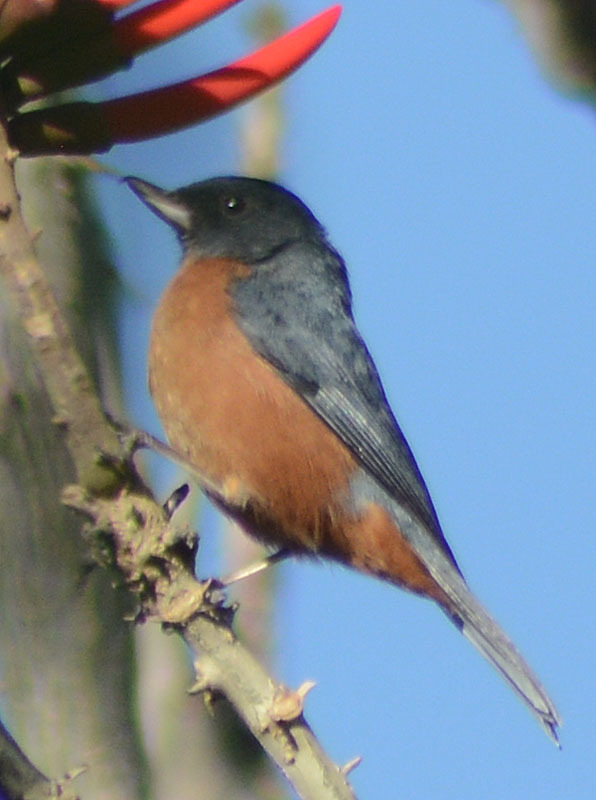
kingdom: Animalia
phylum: Chordata
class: Aves
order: Passeriformes
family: Thraupidae
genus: Diglossa
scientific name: Diglossa baritula
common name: Cinnamon-bellied flowerpiercer
